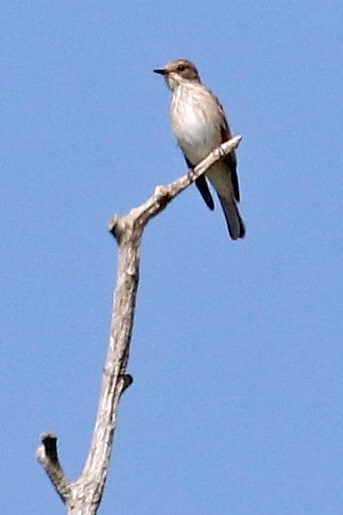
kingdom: Animalia
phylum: Chordata
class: Aves
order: Passeriformes
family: Muscicapidae
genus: Muscicapa
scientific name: Muscicapa striata
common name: Spotted flycatcher
